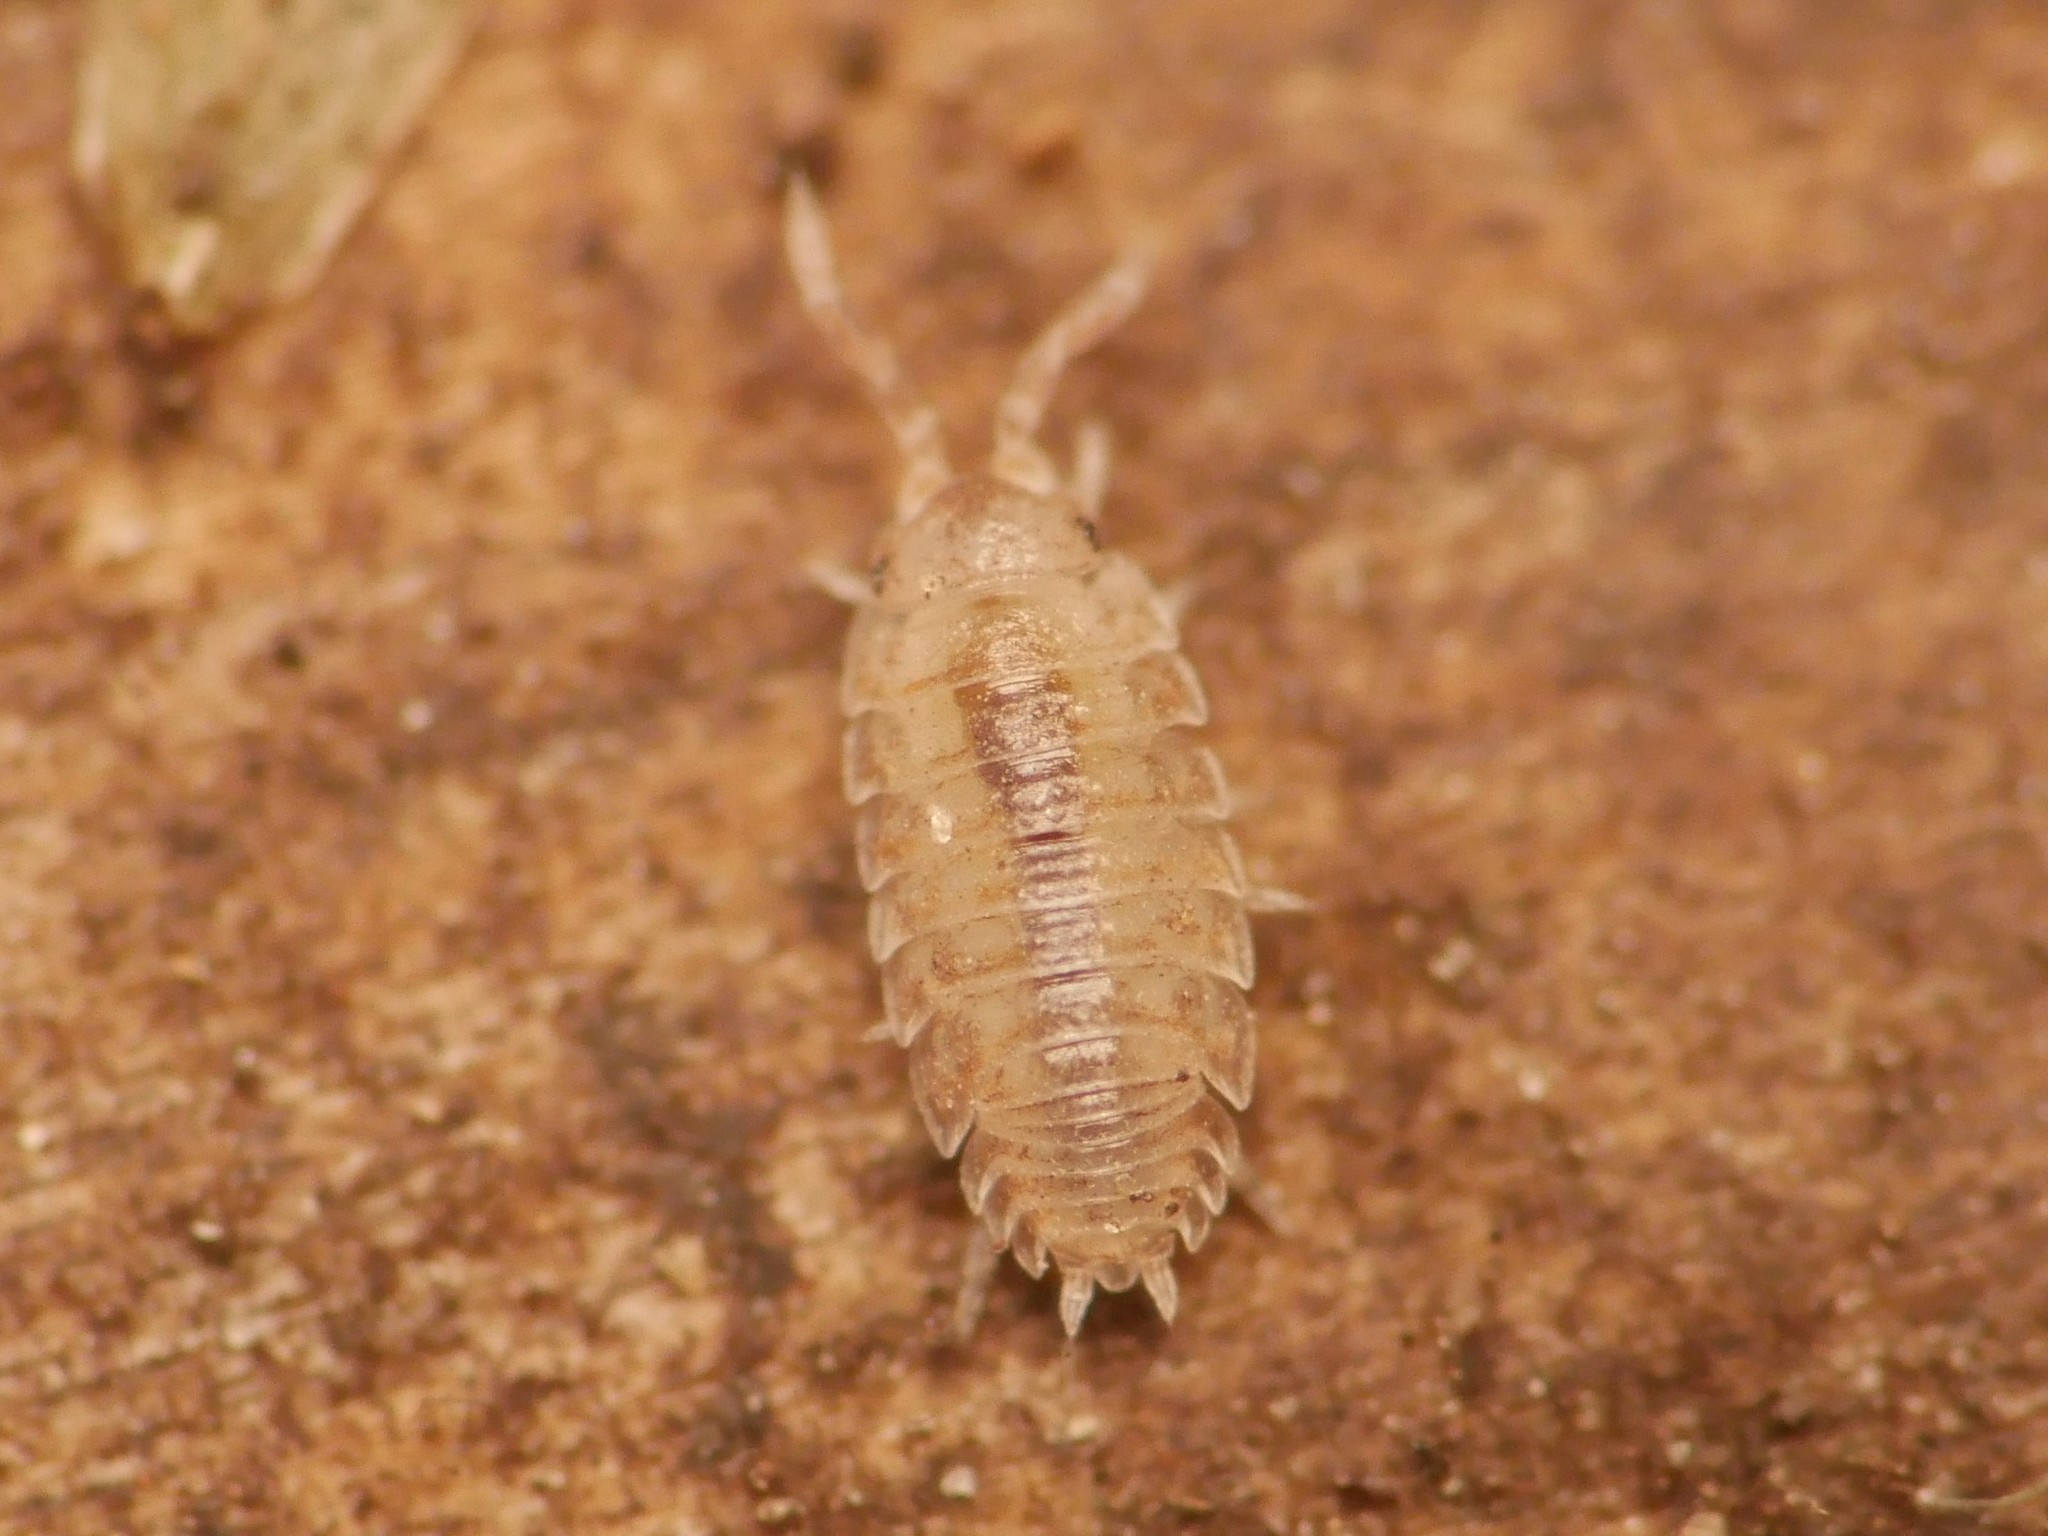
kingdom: Animalia
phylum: Arthropoda
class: Malacostraca
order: Isopoda
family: Porcellionidae
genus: Porcellio
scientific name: Porcellio scaber
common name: Common rough woodlouse
